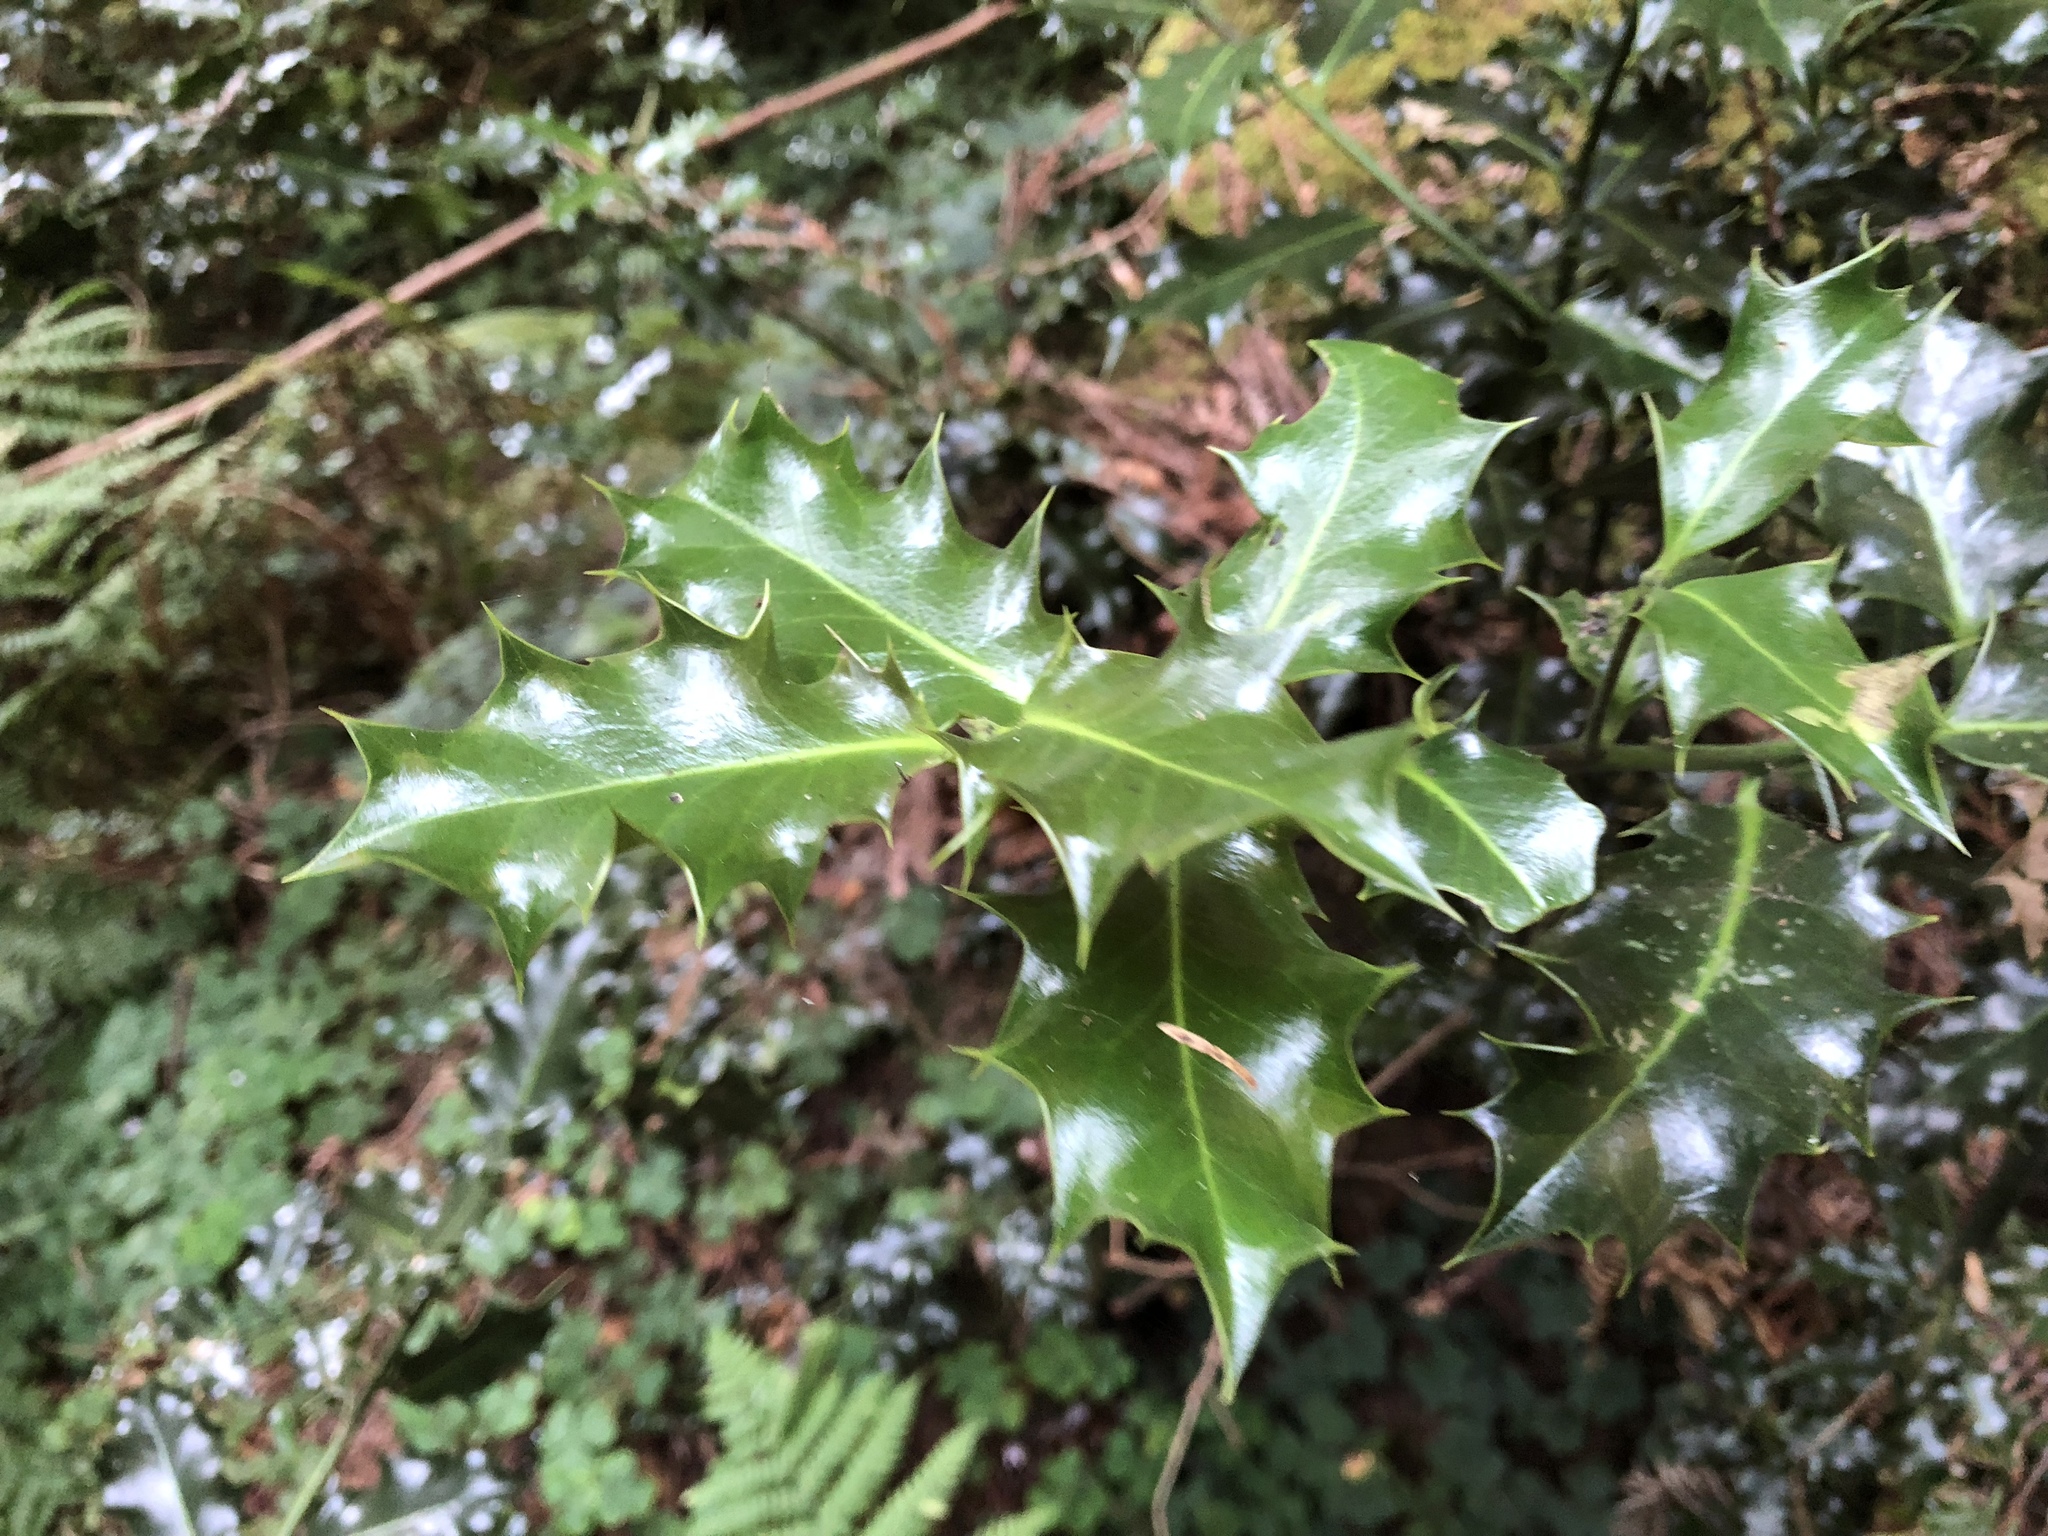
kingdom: Plantae
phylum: Tracheophyta
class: Magnoliopsida
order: Aquifoliales
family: Aquifoliaceae
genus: Ilex
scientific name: Ilex aquifolium
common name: English holly
